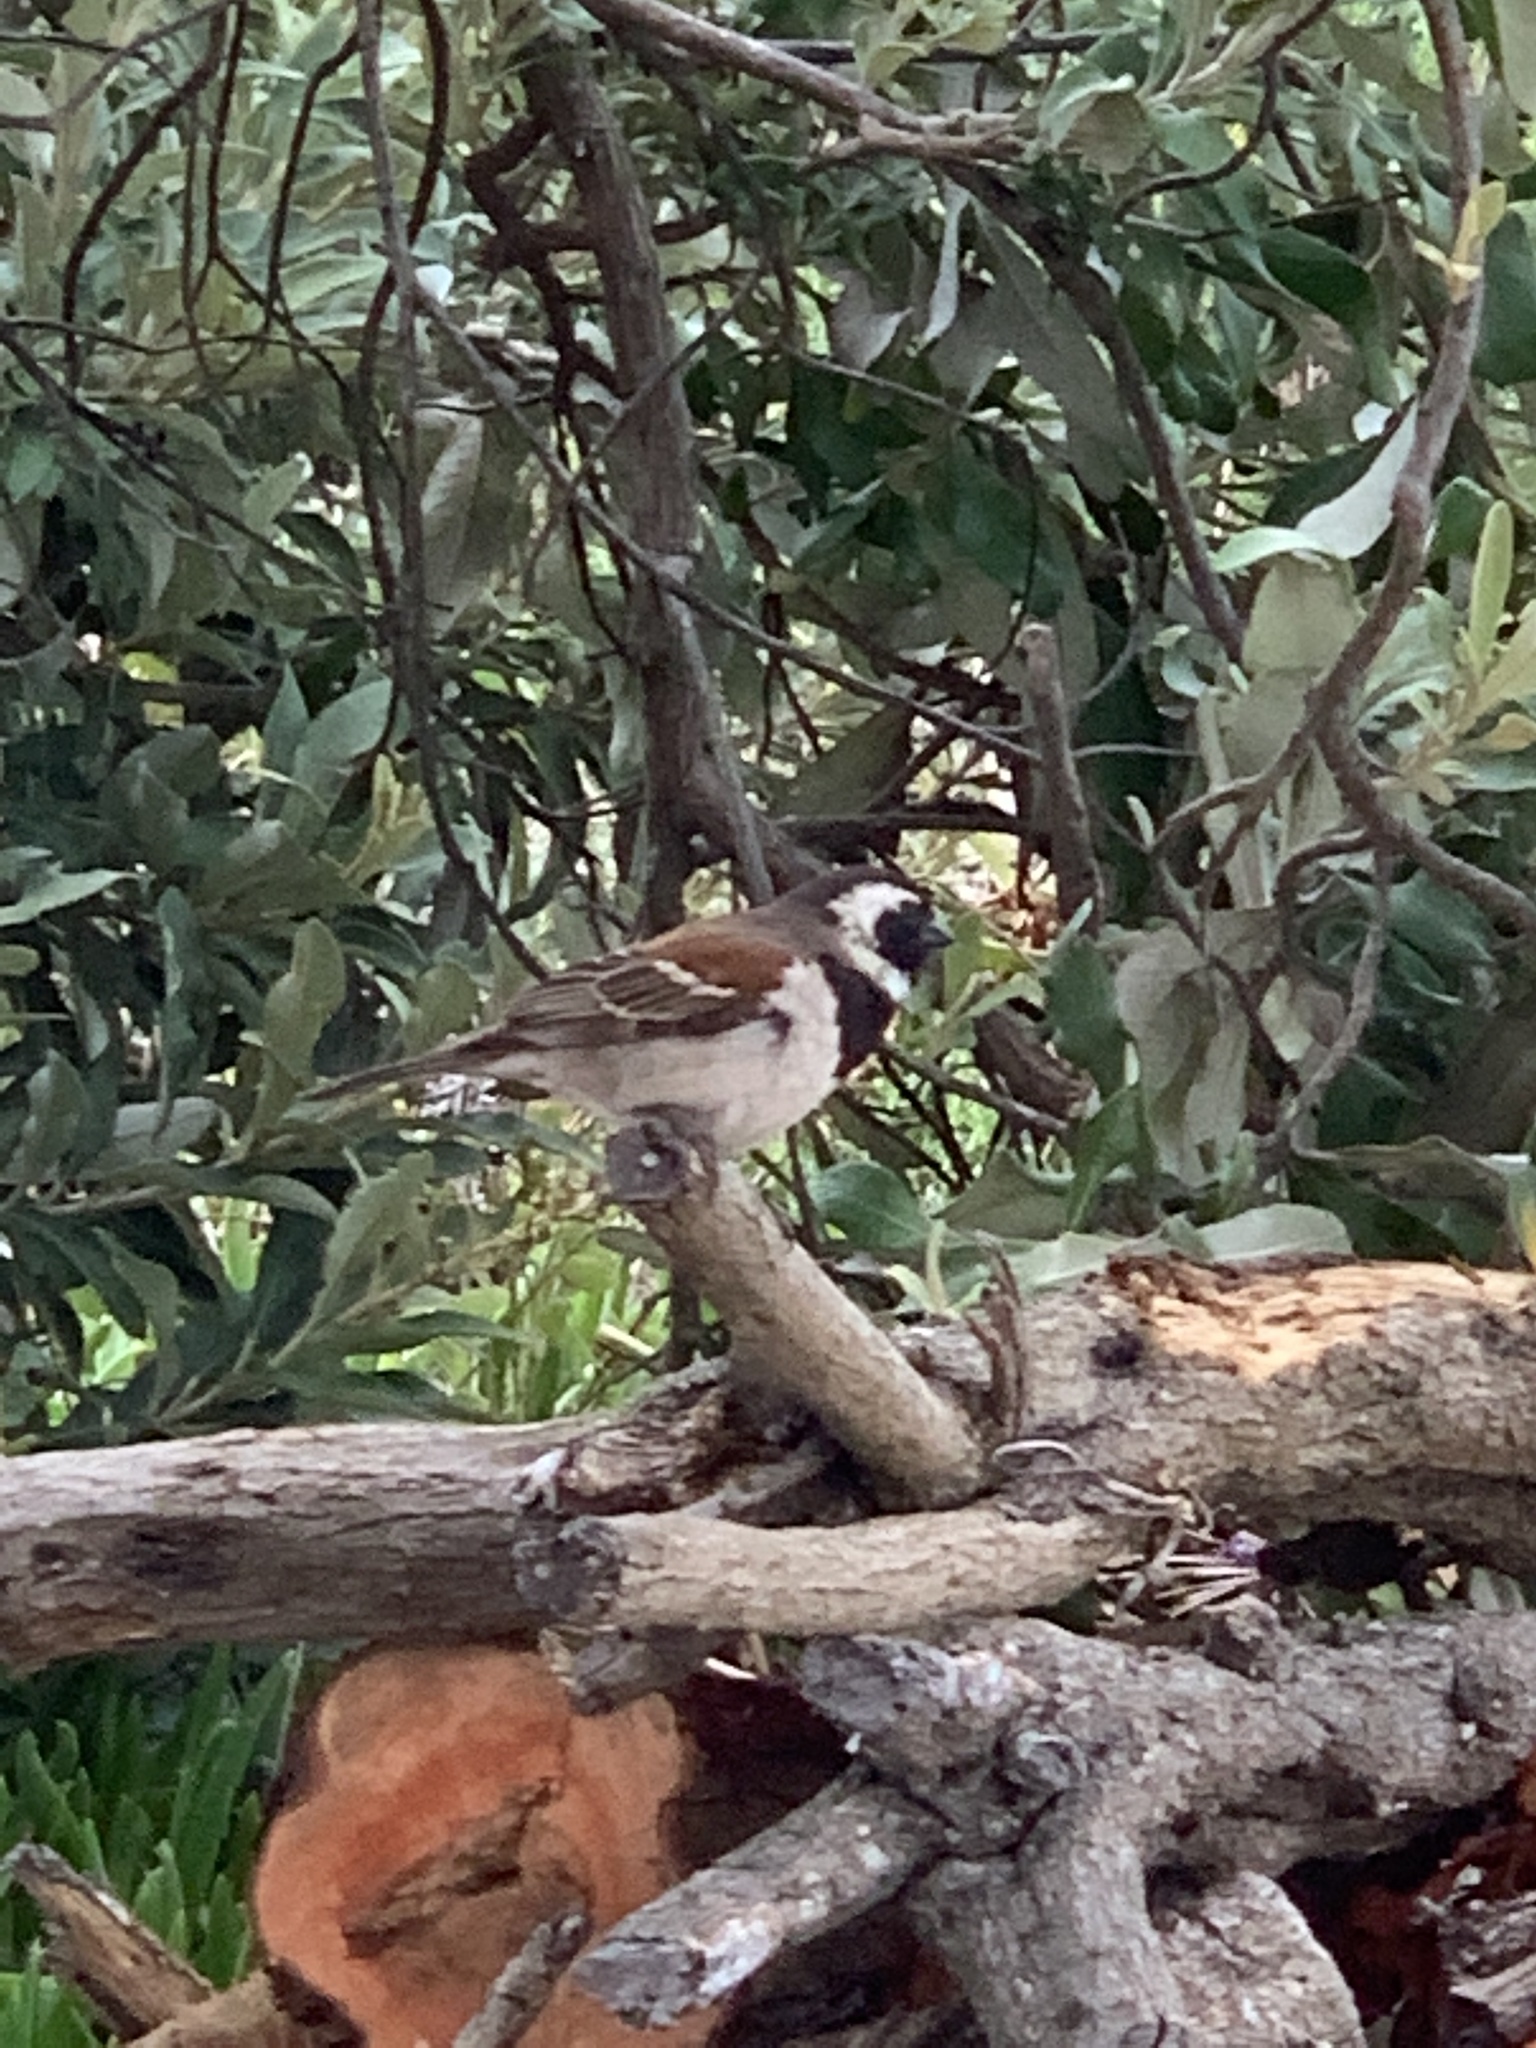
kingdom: Animalia
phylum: Chordata
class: Aves
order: Passeriformes
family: Passeridae
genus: Passer
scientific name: Passer melanurus
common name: Cape sparrow
